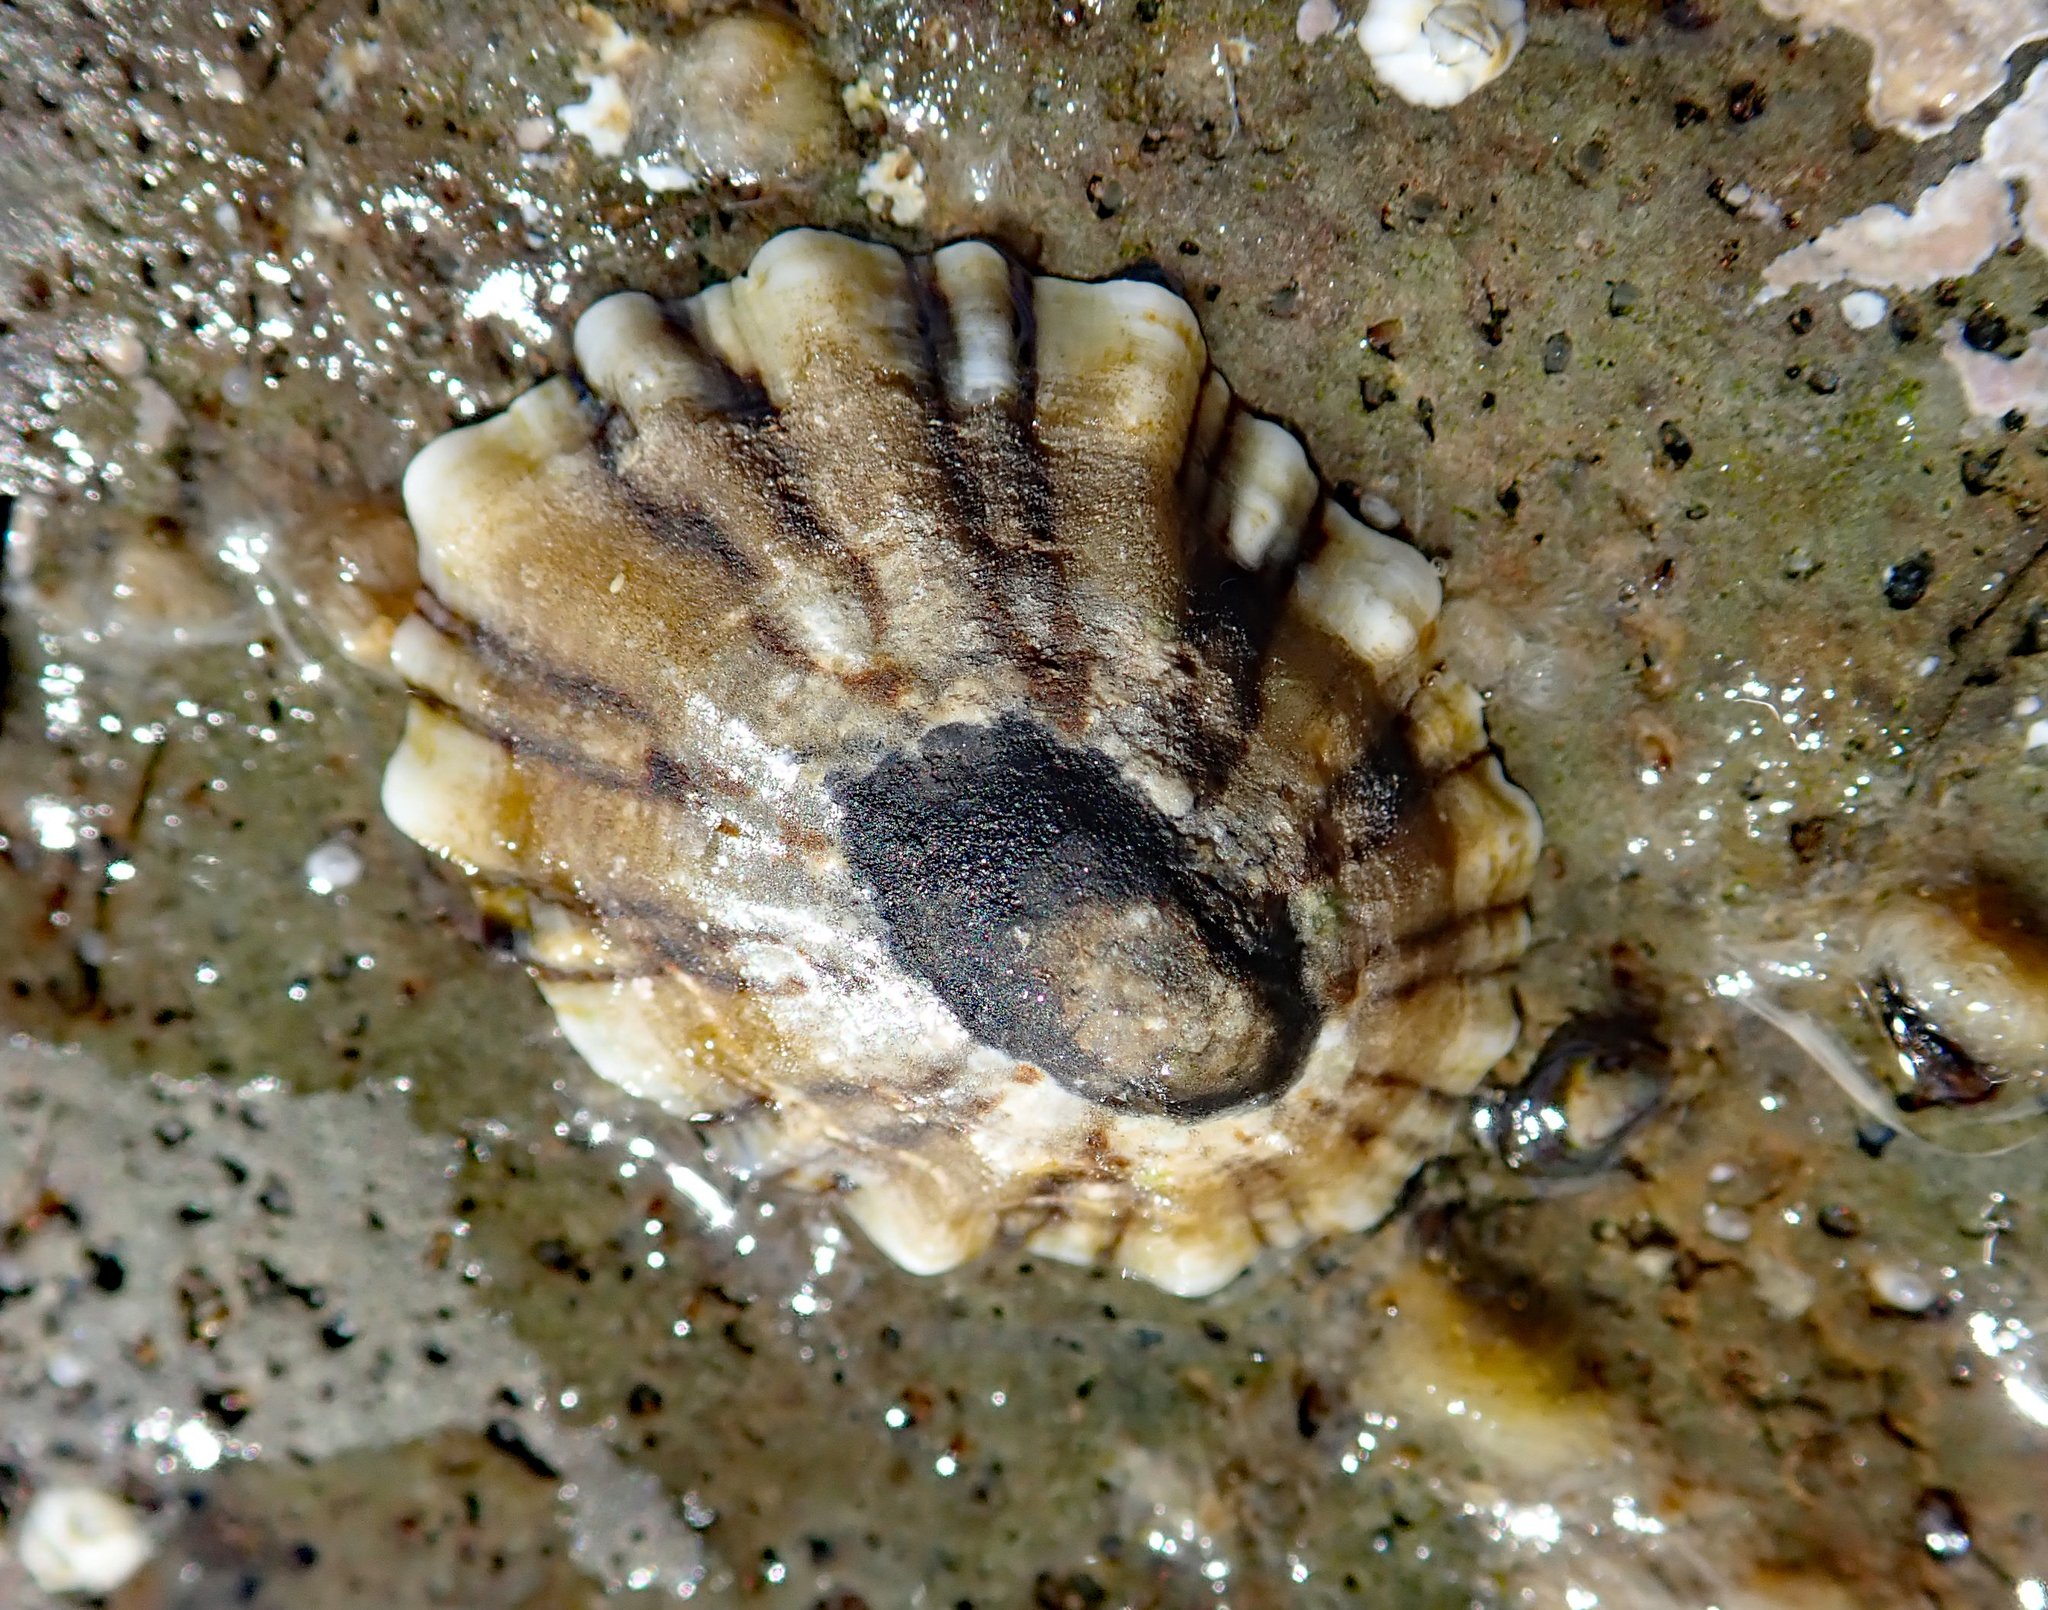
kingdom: Animalia
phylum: Mollusca
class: Gastropoda
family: Nacellidae
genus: Cellana
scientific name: Cellana ornata
